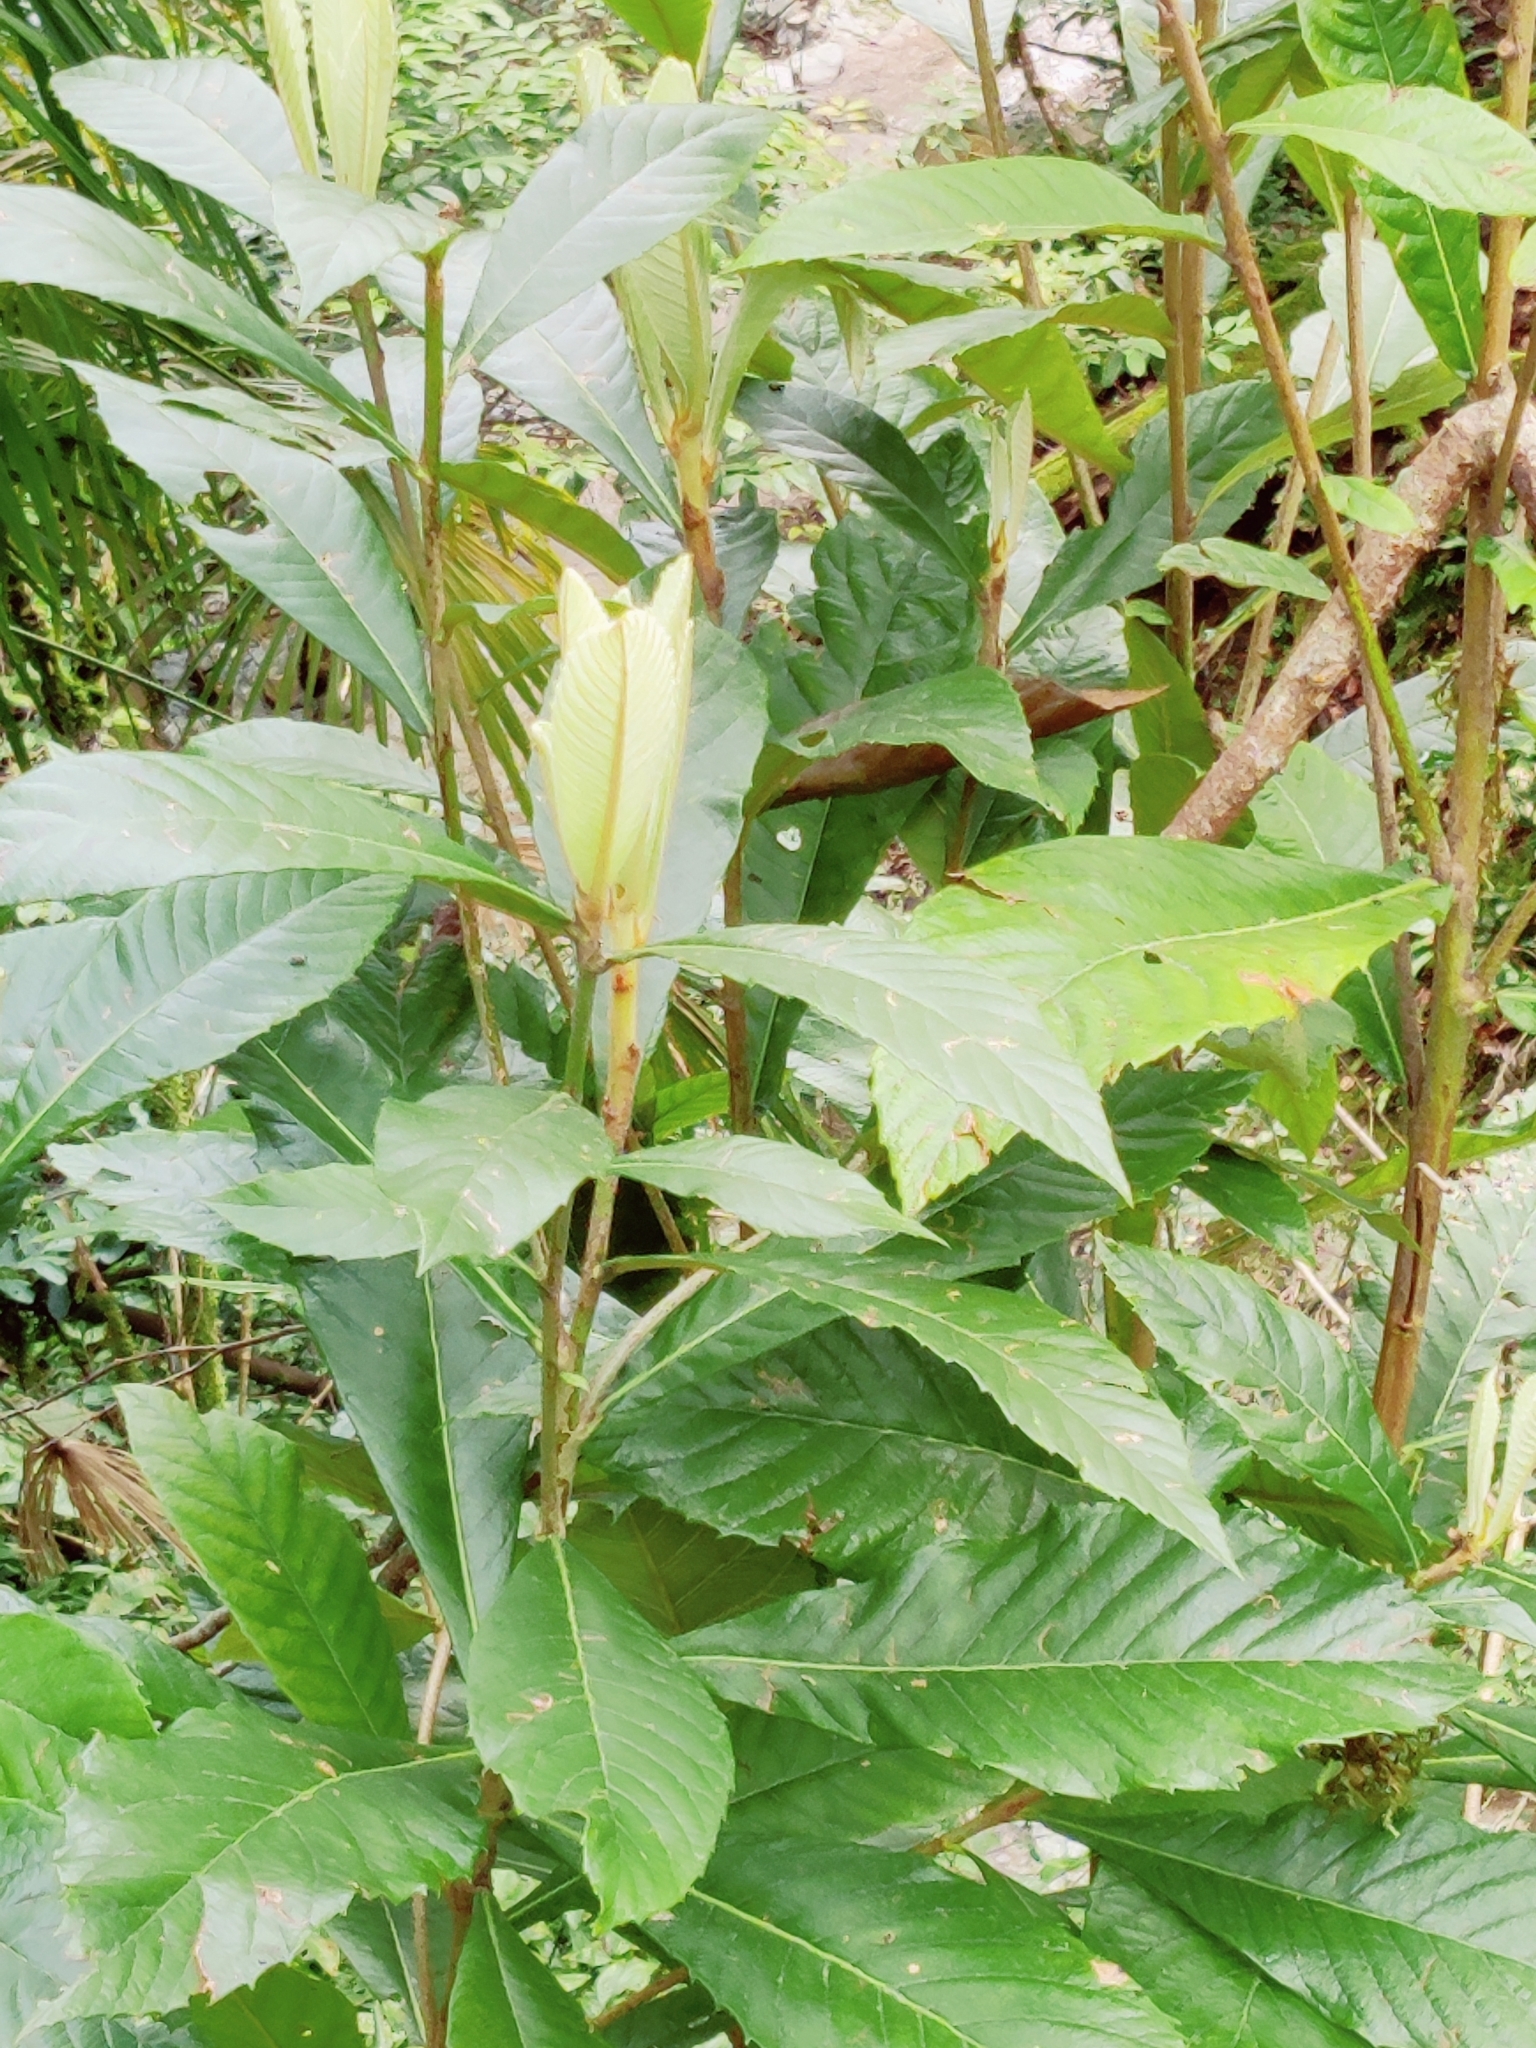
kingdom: Plantae
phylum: Tracheophyta
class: Magnoliopsida
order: Rosales
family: Rosaceae
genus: Rhaphiolepis
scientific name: Rhaphiolepis bibas
